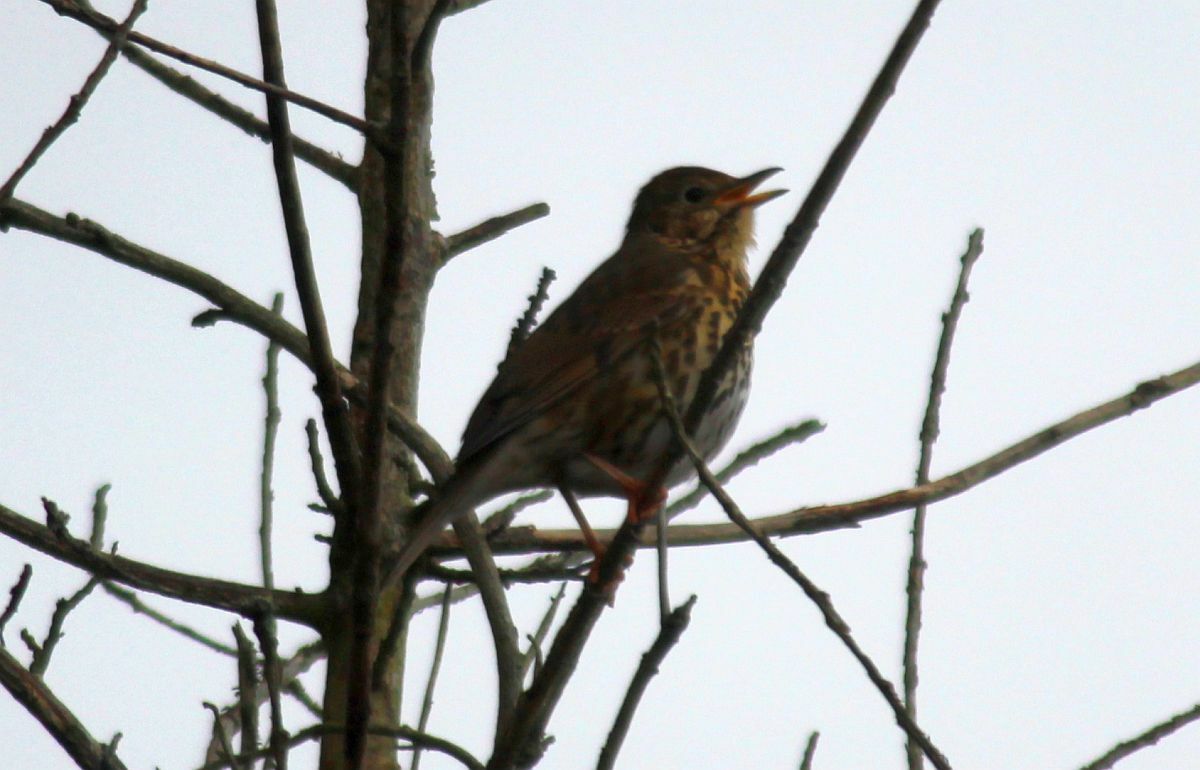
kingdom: Animalia
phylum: Chordata
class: Aves
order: Passeriformes
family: Turdidae
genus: Turdus
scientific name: Turdus philomelos
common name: Song thrush
